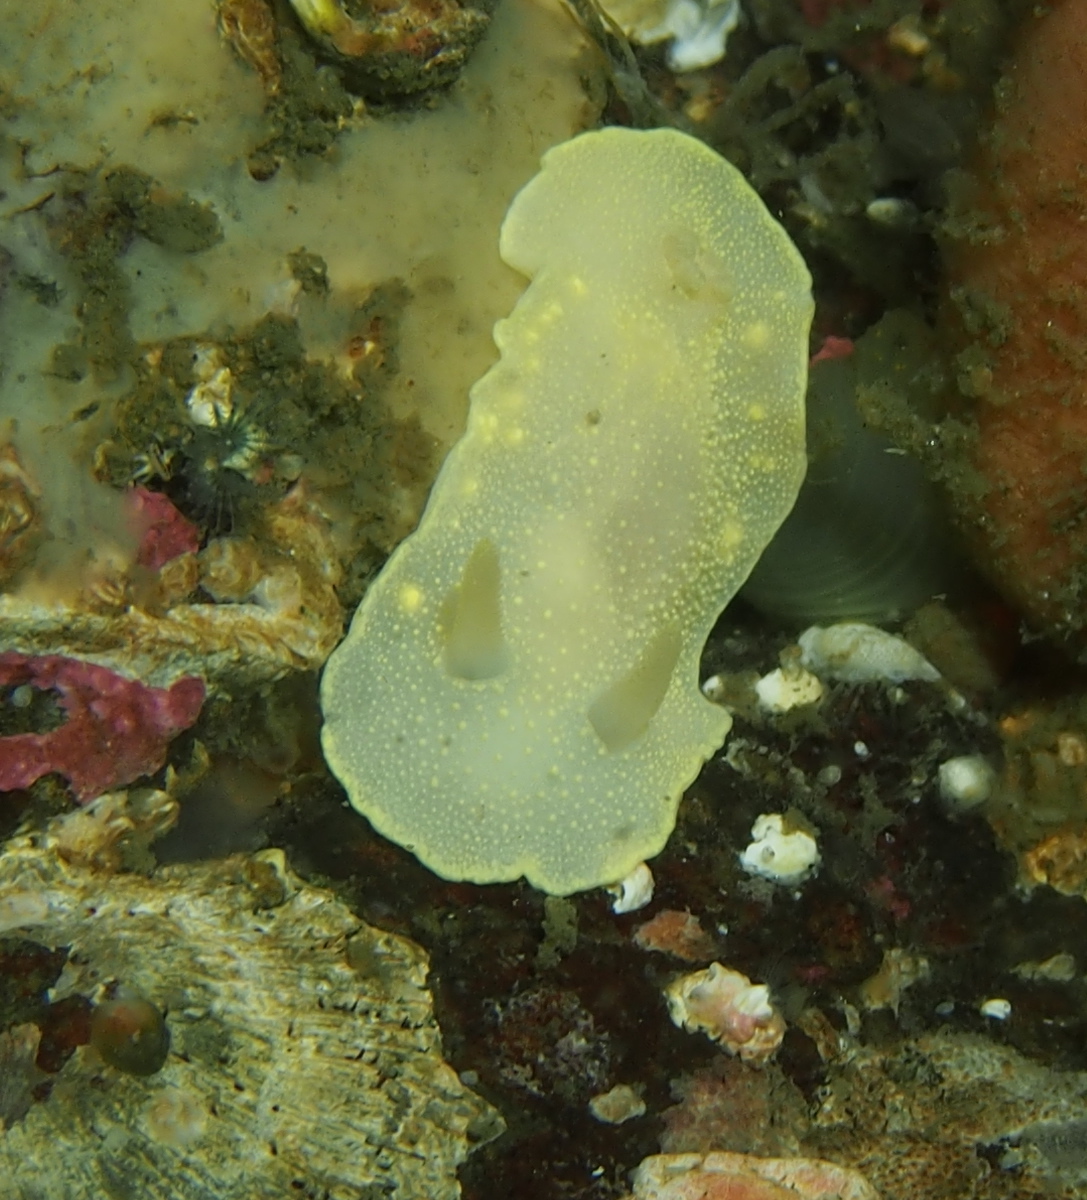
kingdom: Animalia
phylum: Mollusca
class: Gastropoda
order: Nudibranchia
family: Cadlinidae
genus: Cadlina
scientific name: Cadlina laevis
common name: White atlantic cadlina
